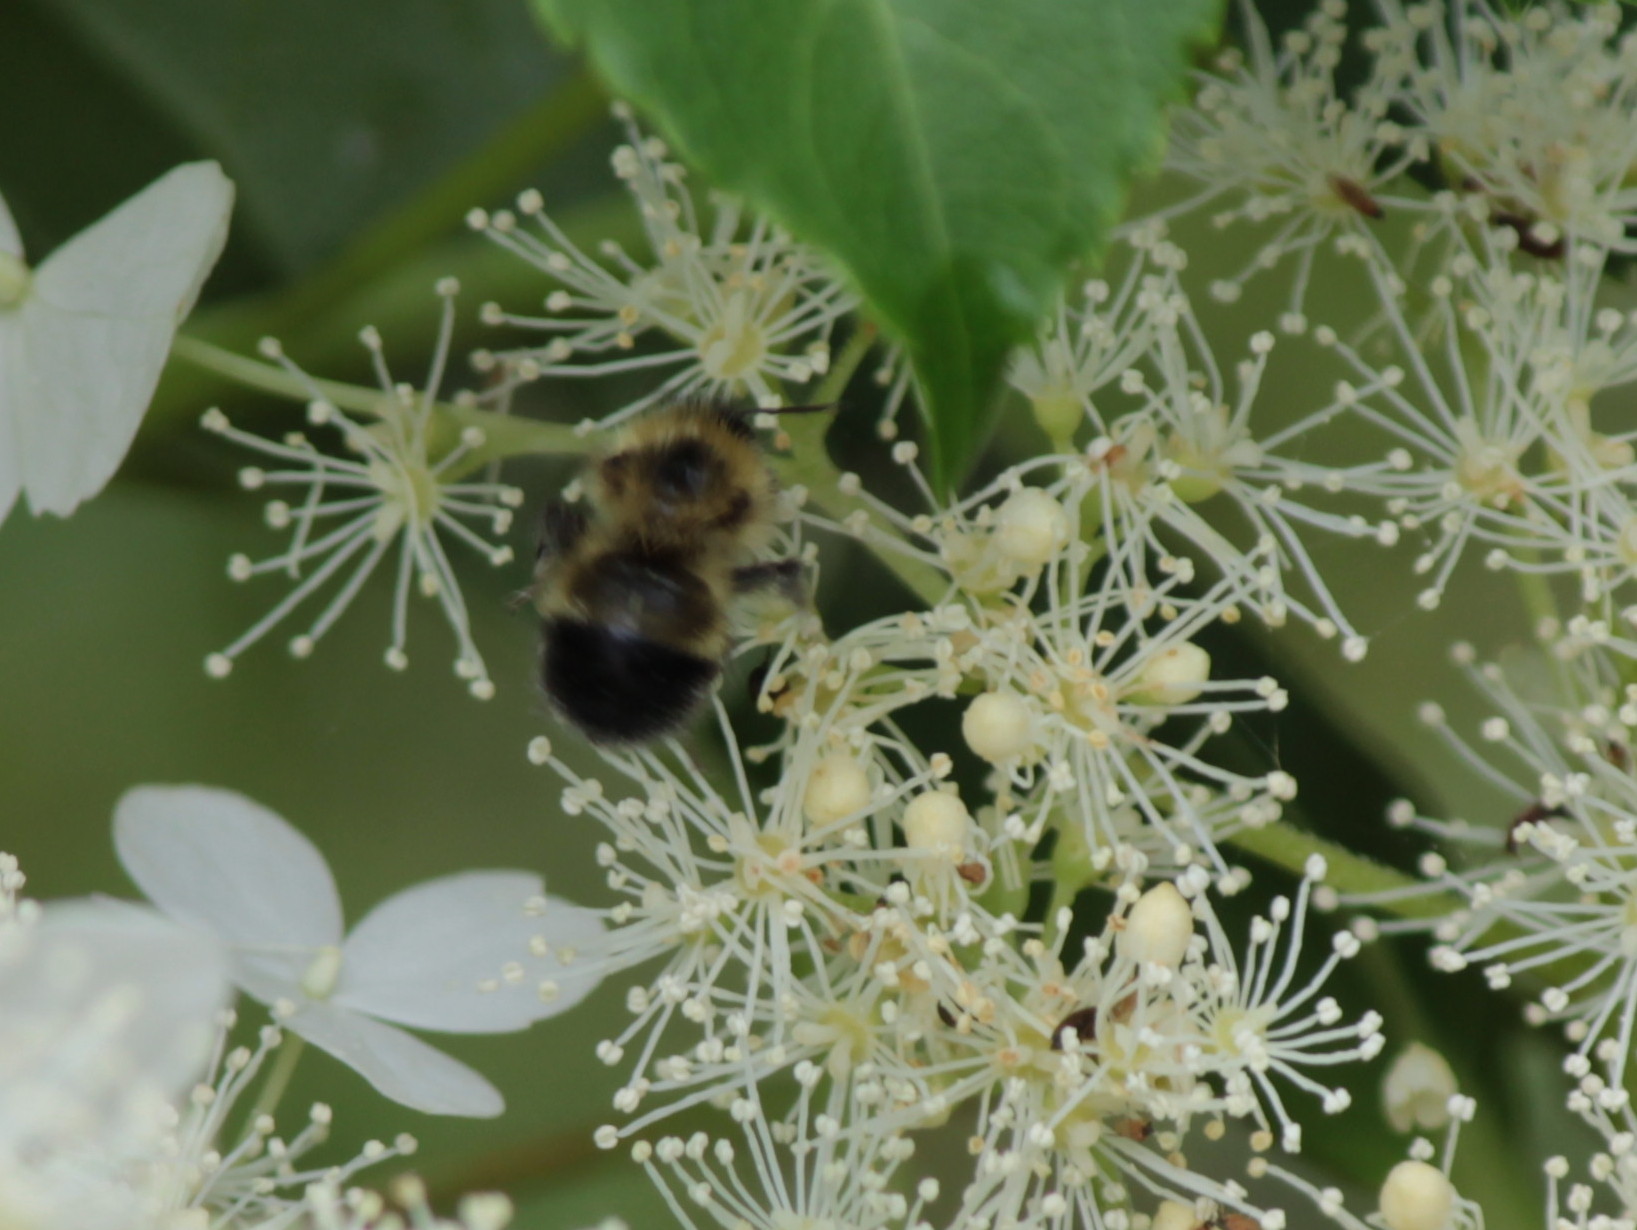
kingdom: Animalia
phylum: Arthropoda
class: Insecta
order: Hymenoptera
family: Apidae
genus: Pyrobombus
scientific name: Pyrobombus
